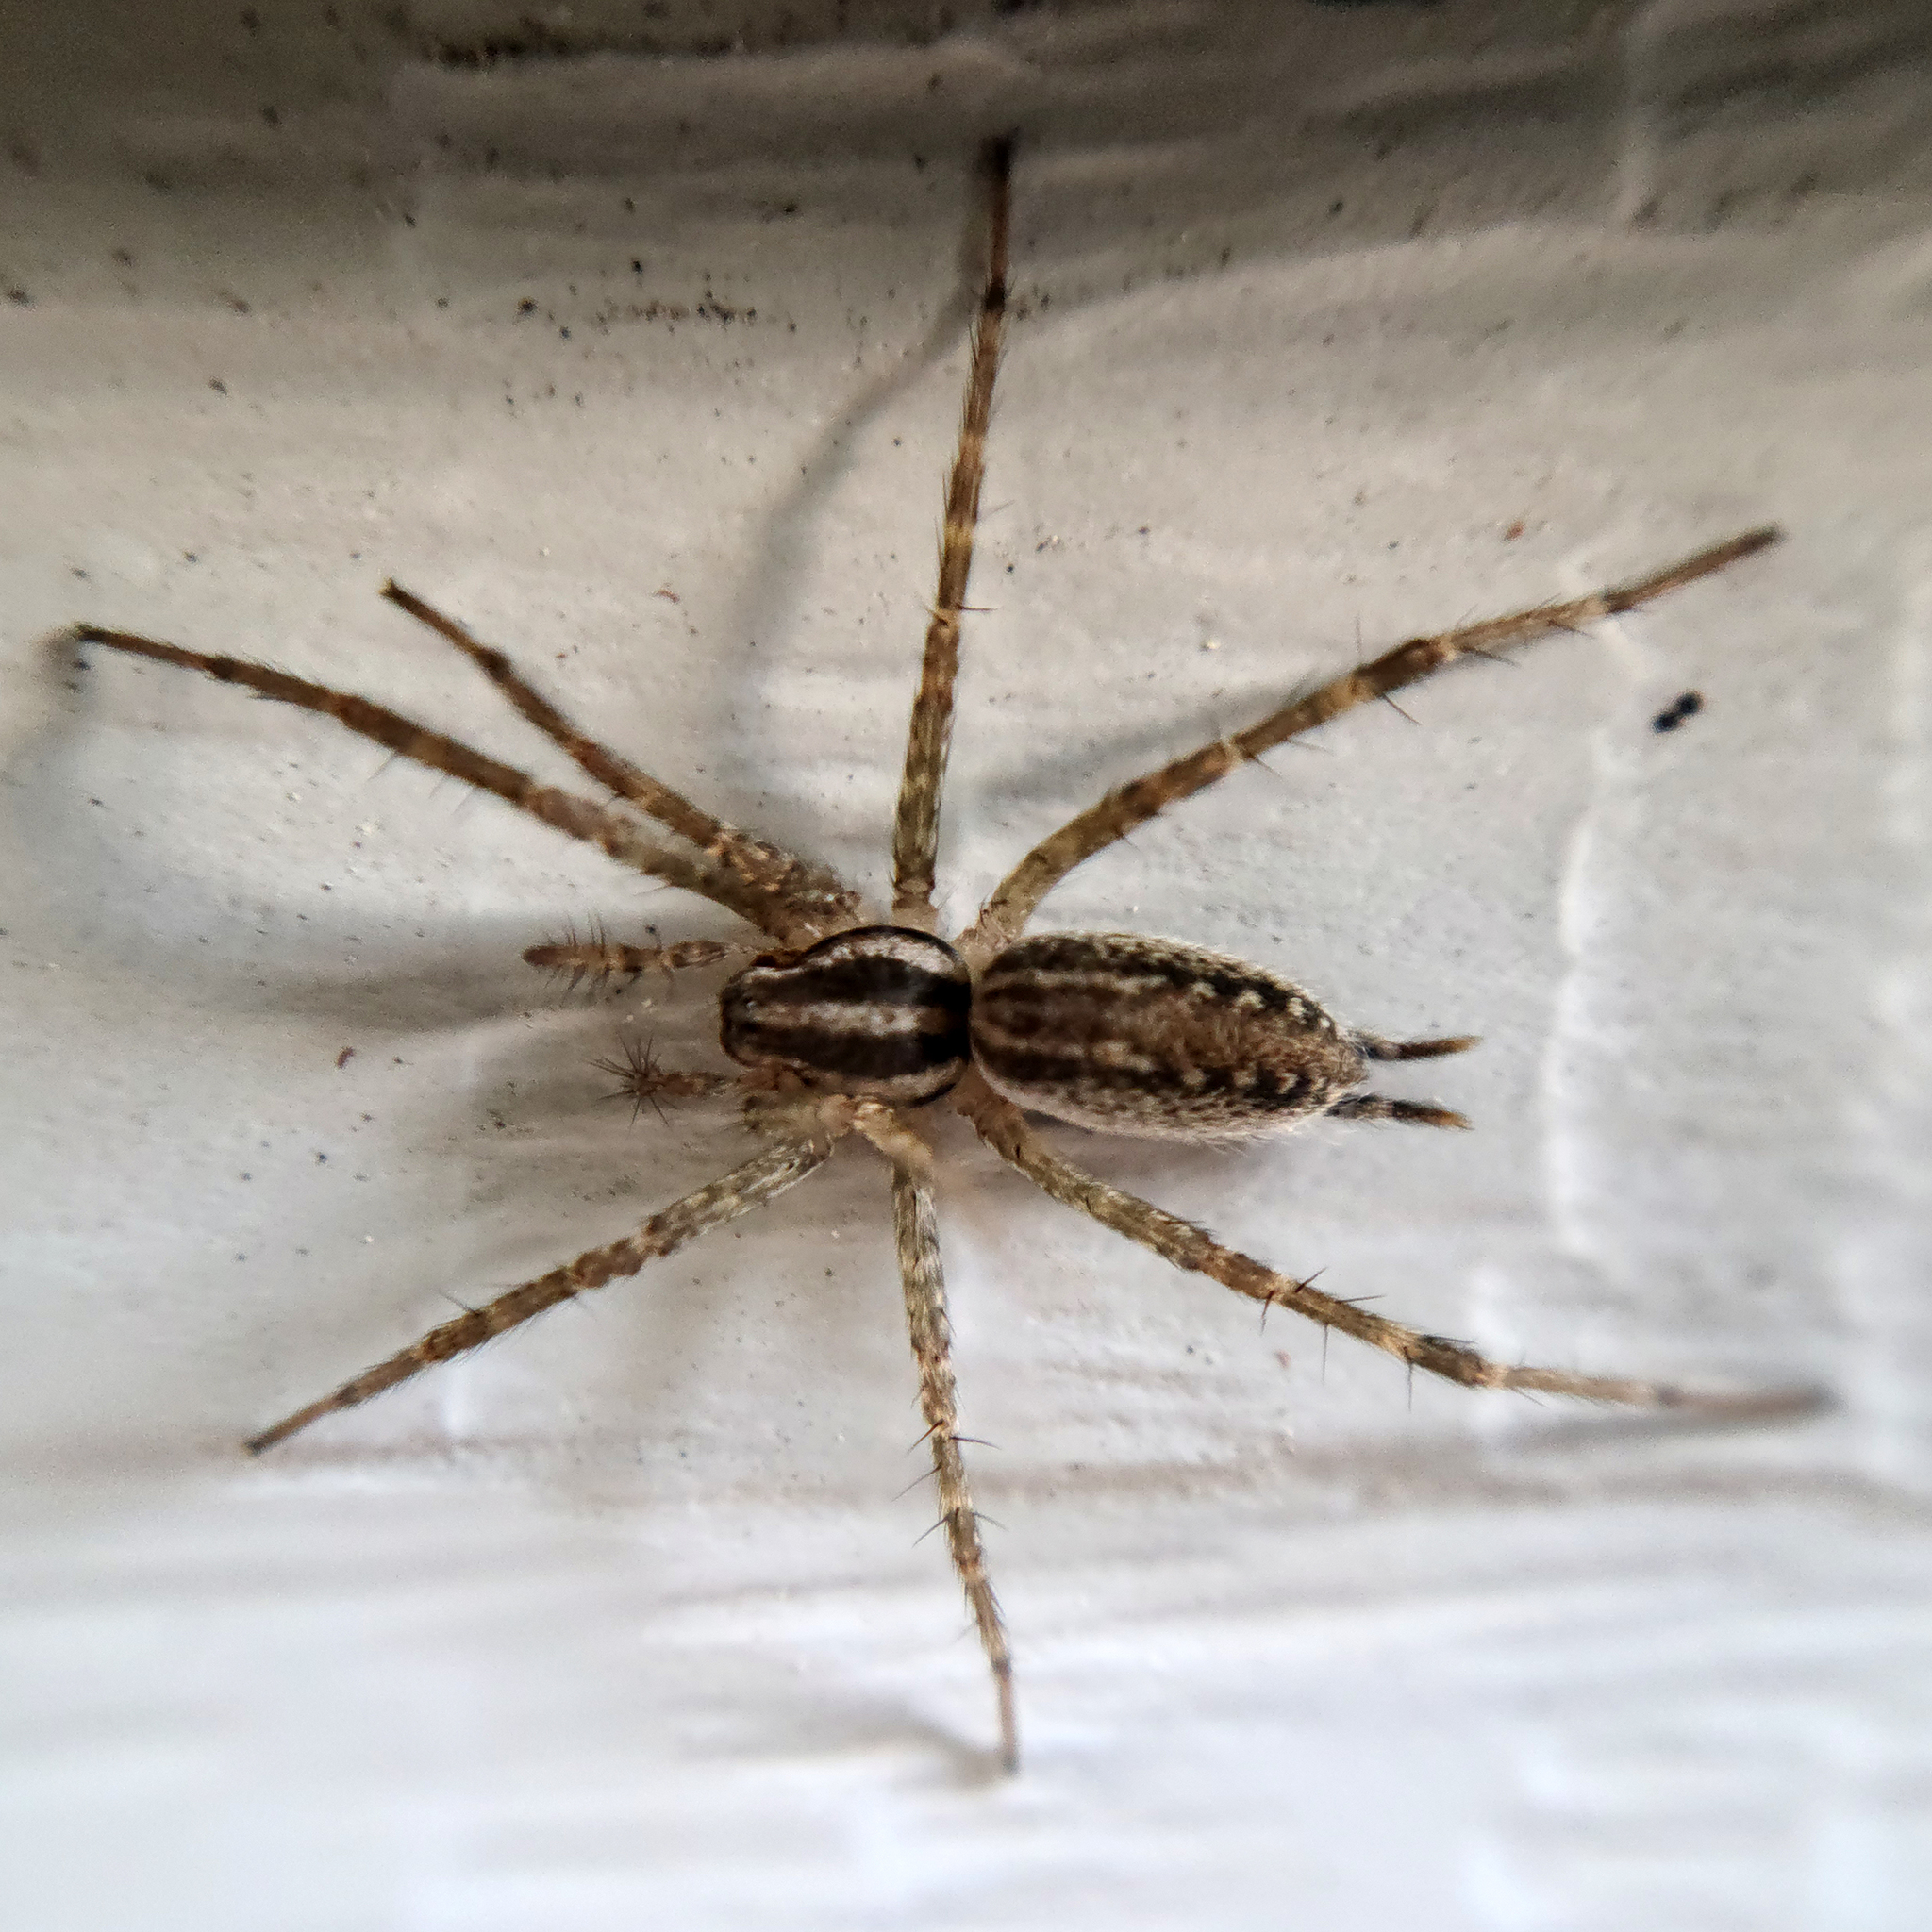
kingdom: Animalia
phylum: Arthropoda
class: Arachnida
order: Araneae
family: Agelenidae
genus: Agelenopsis
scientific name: Agelenopsis
